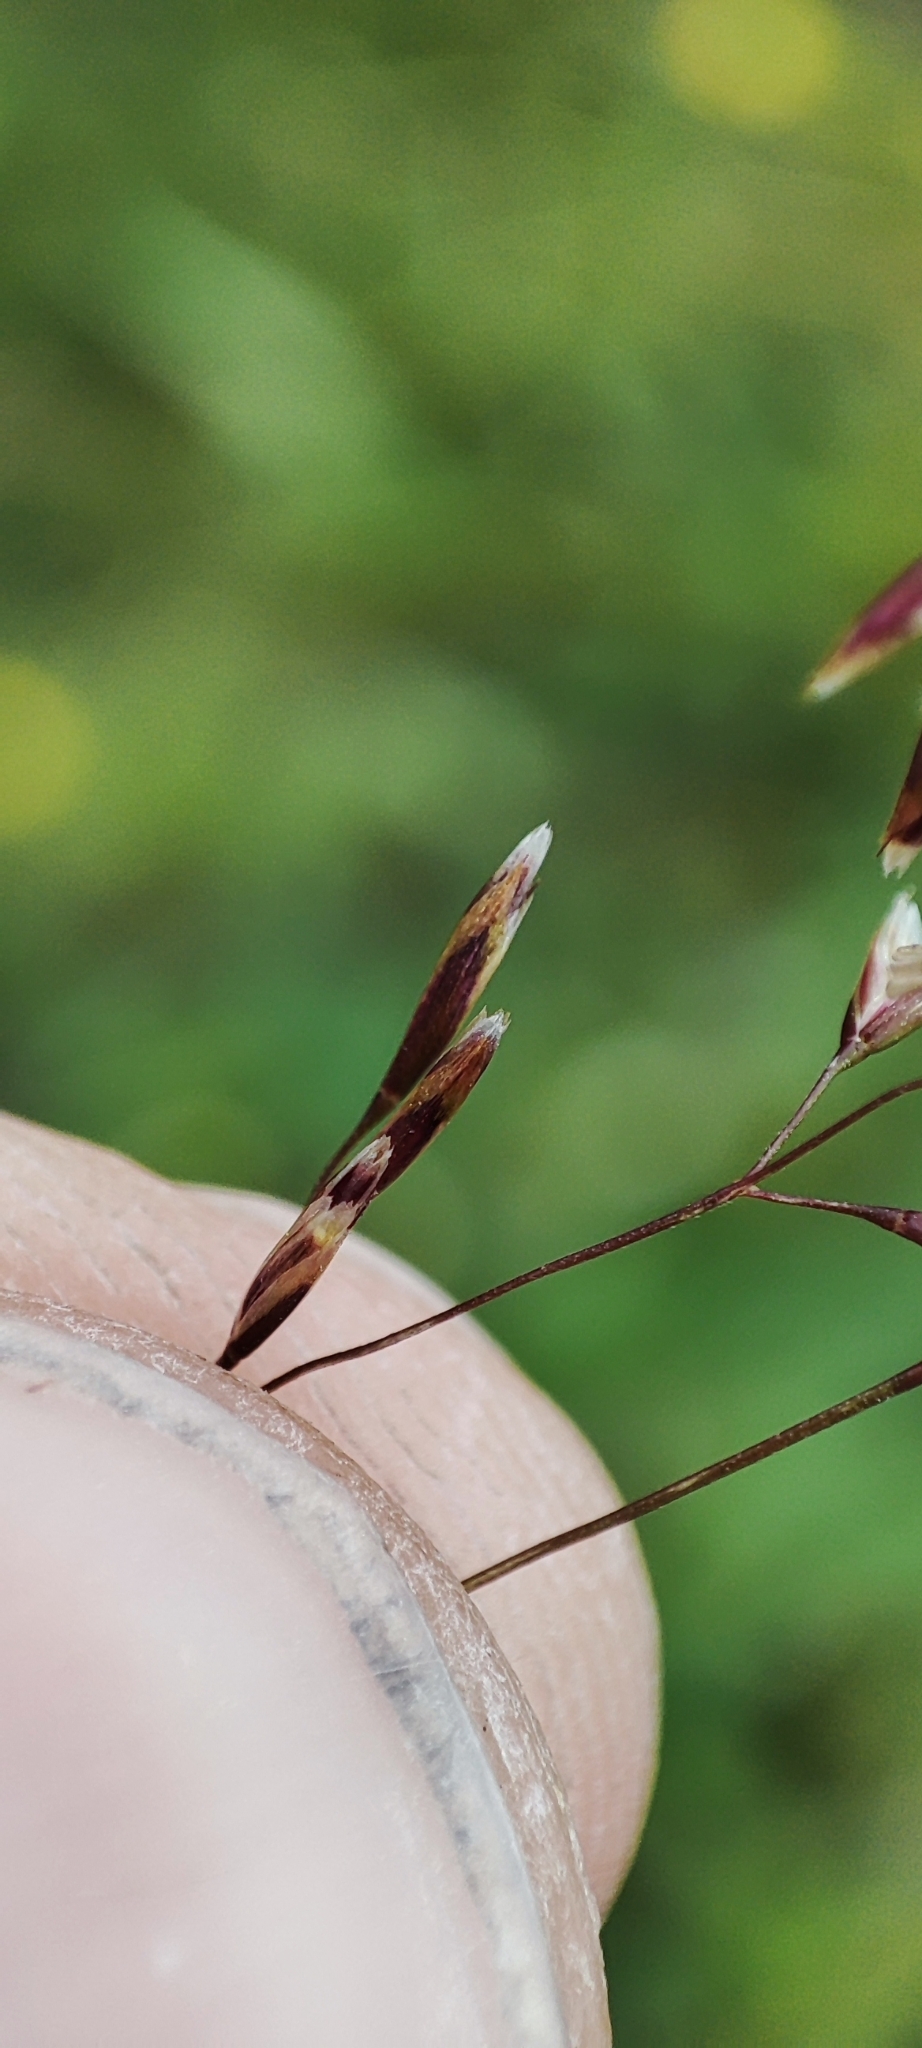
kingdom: Plantae
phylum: Tracheophyta
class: Liliopsida
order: Poales
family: Poaceae
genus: Deschampsia
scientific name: Deschampsia cespitosa
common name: Tufted hair-grass
